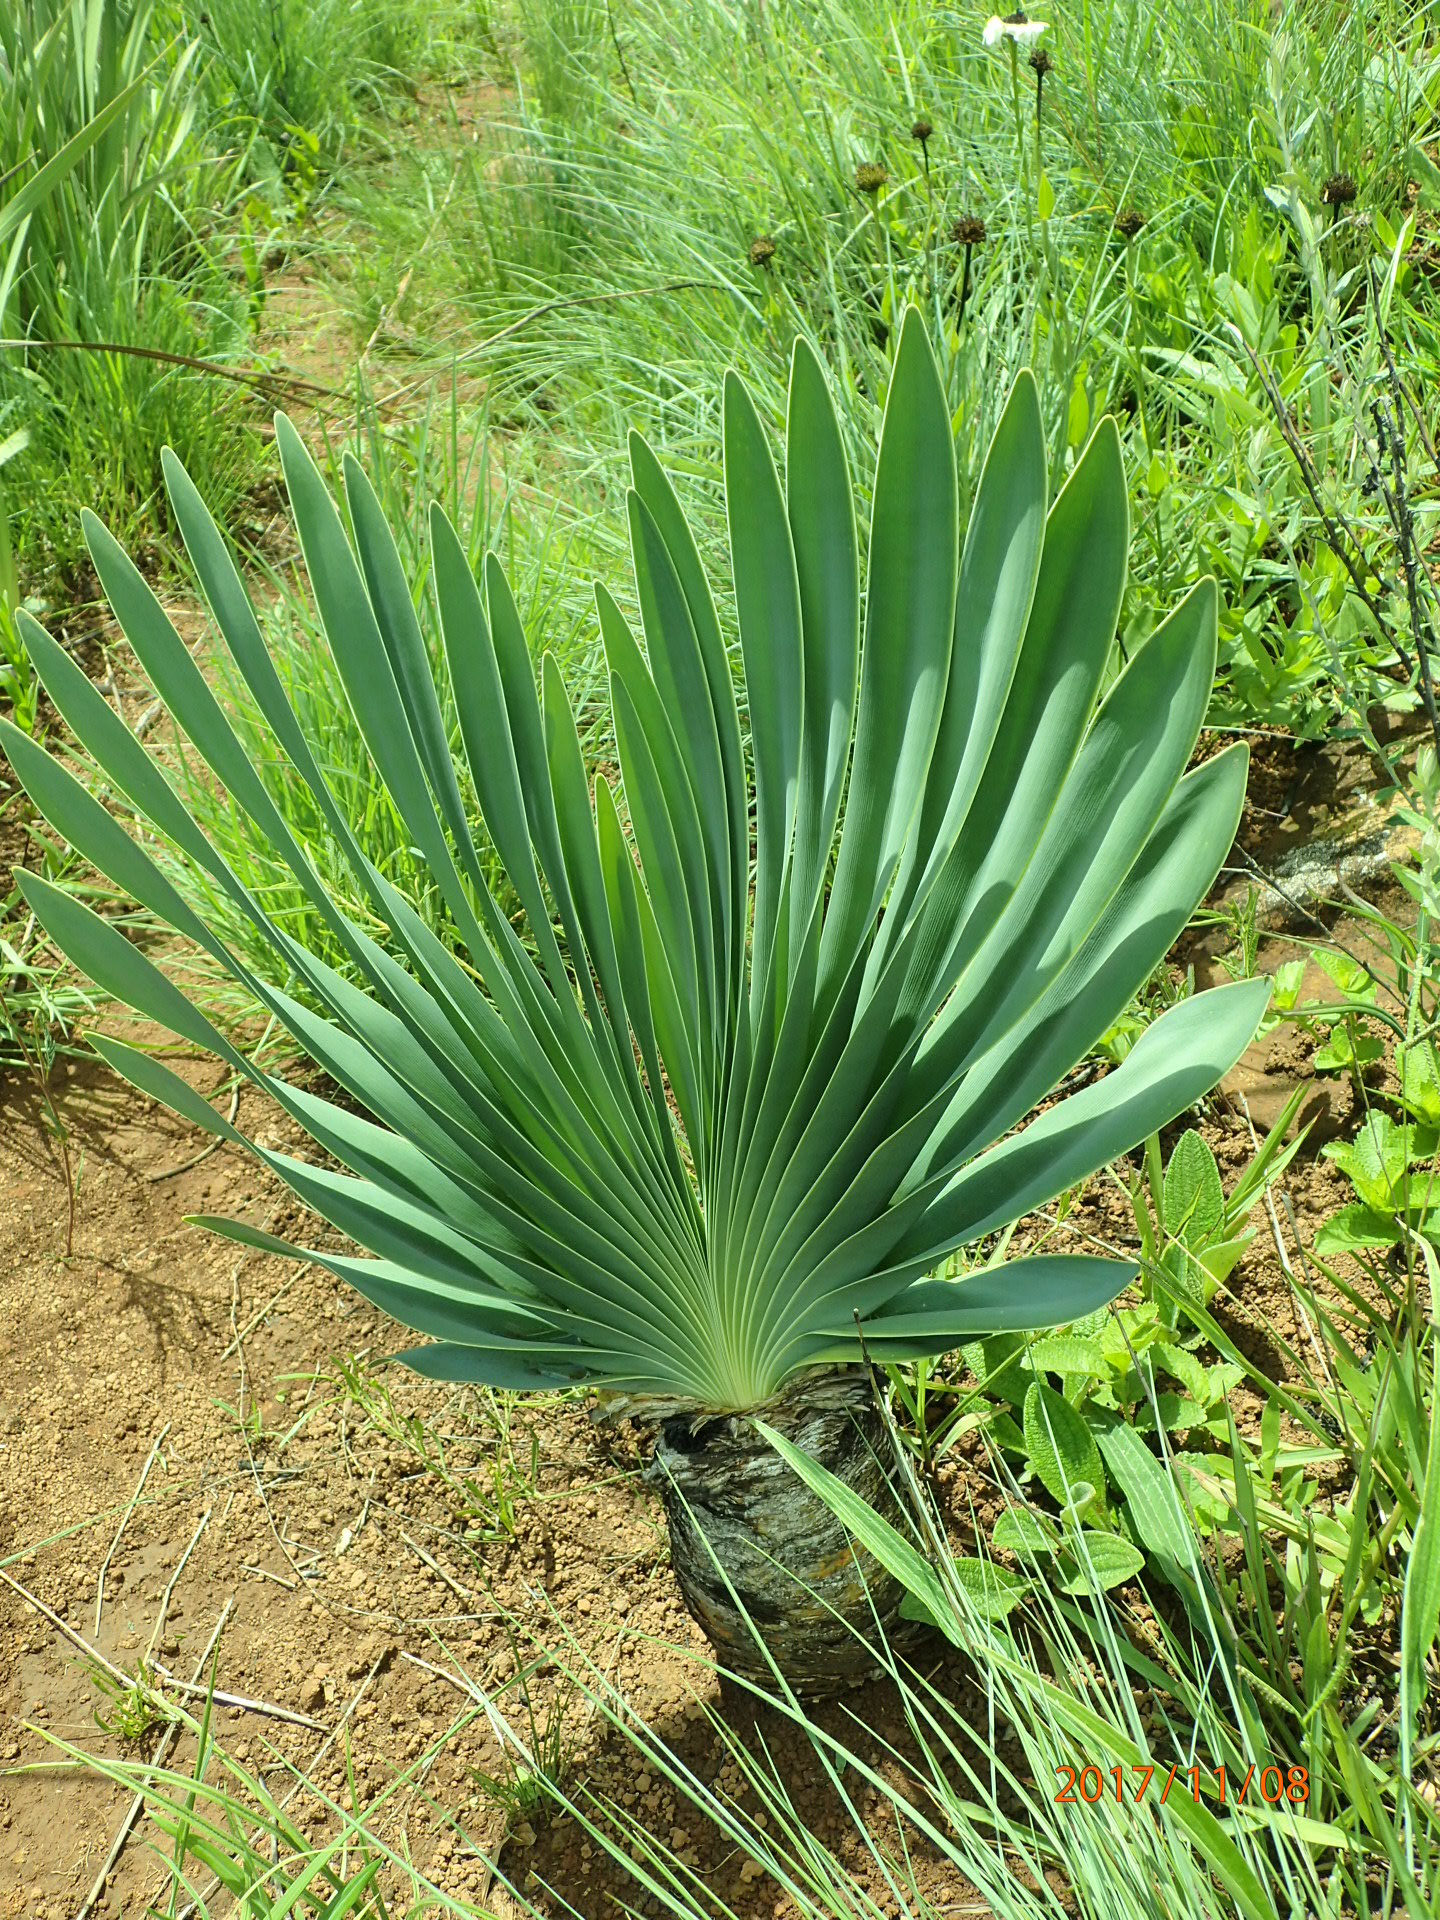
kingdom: Plantae
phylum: Tracheophyta
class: Liliopsida
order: Asparagales
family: Amaryllidaceae
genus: Boophone
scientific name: Boophone disticha
